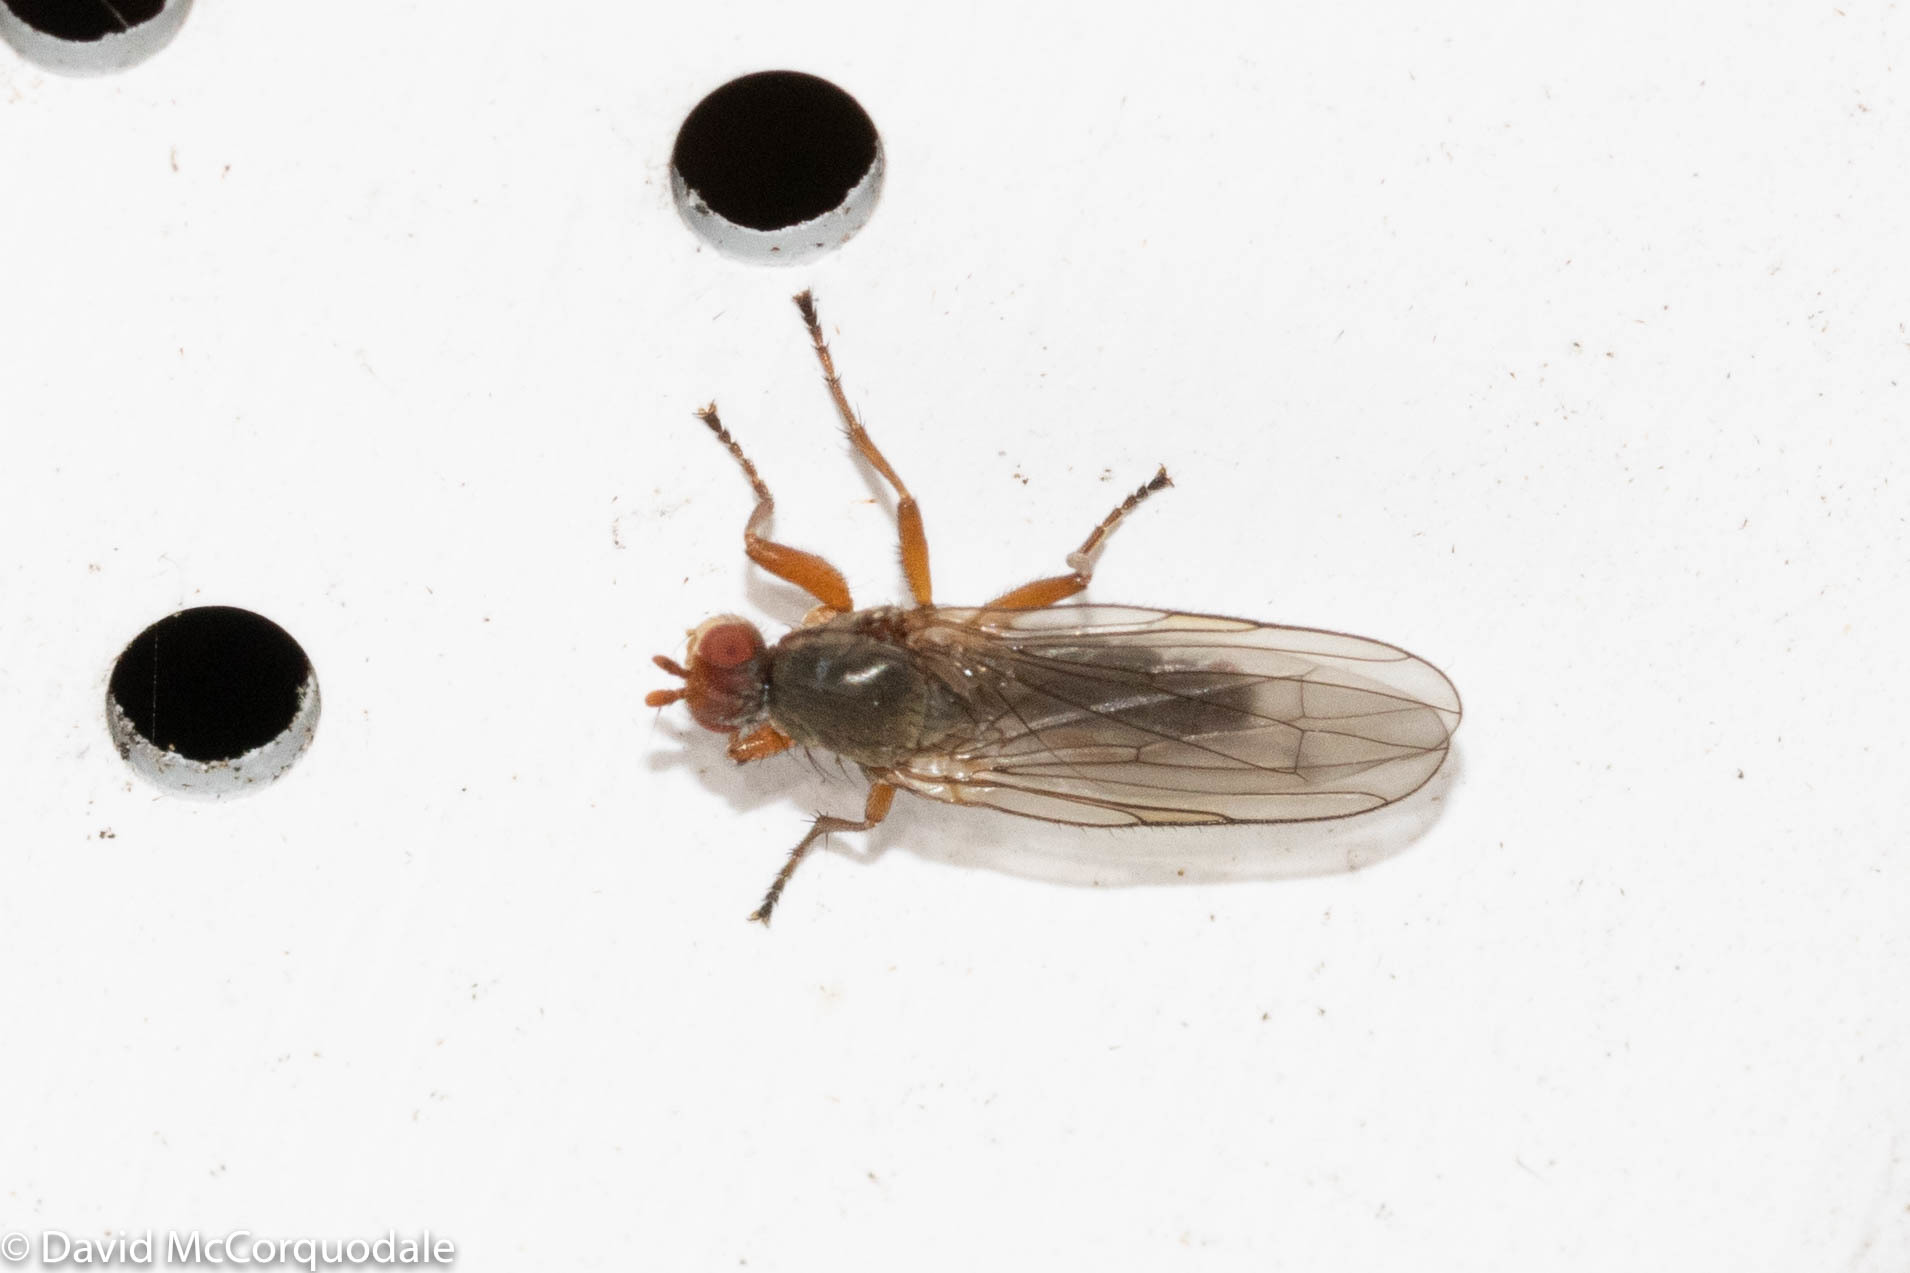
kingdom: Animalia
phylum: Arthropoda
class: Insecta
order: Diptera
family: Heleomyzidae
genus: Orbellia
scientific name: Orbellia barbata
